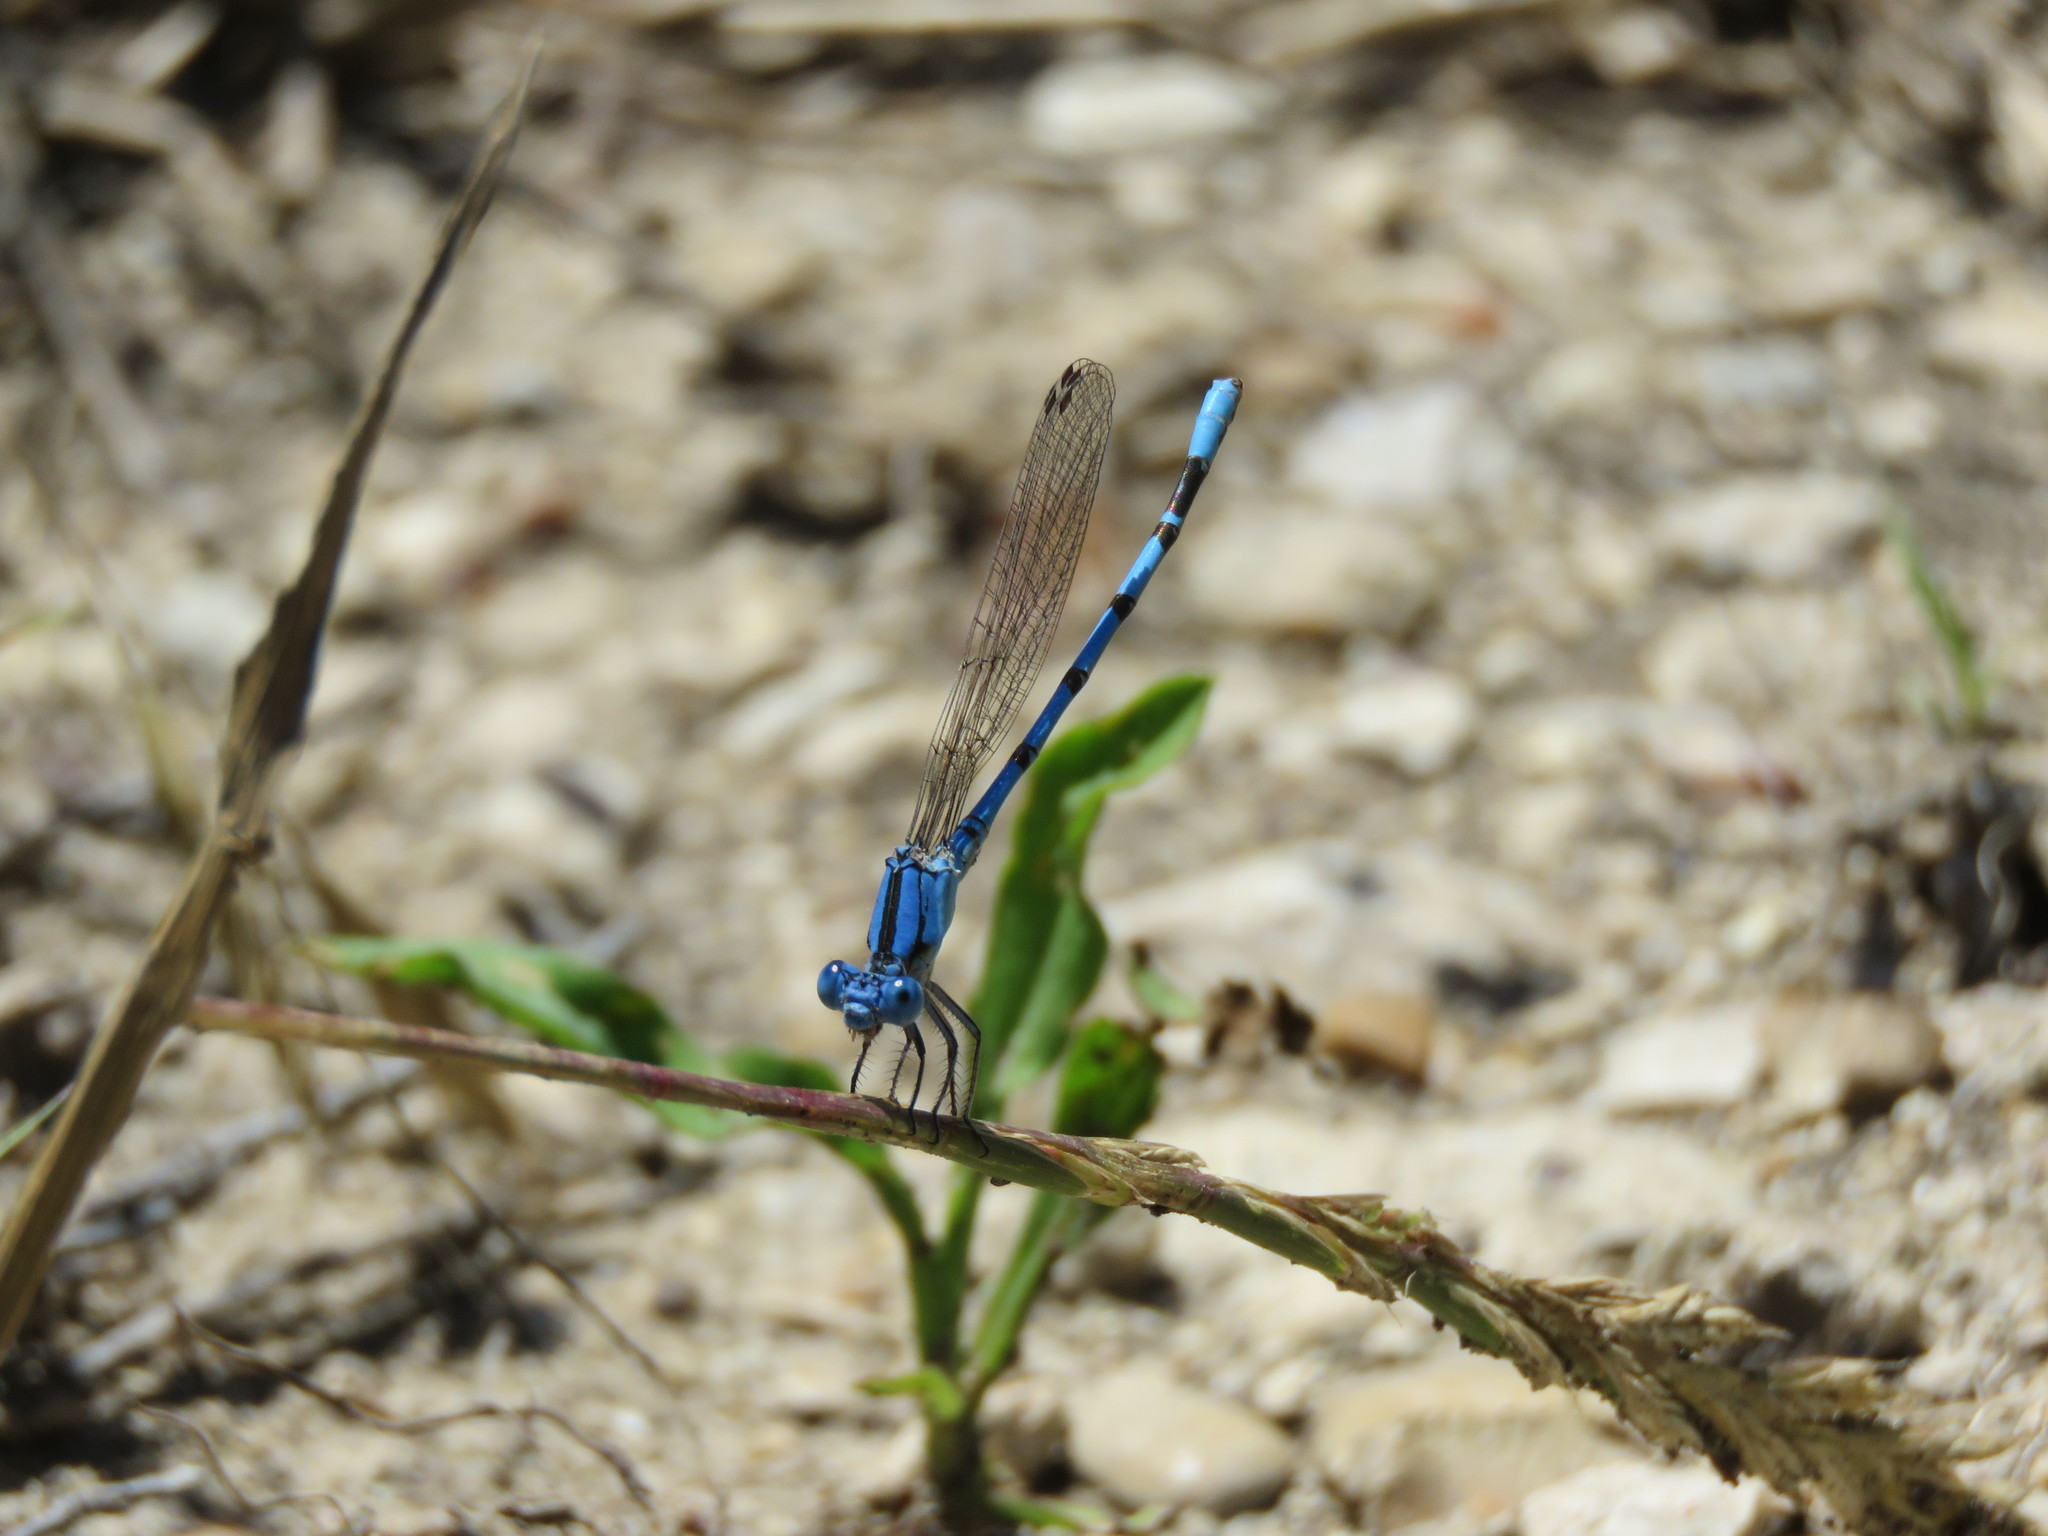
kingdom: Animalia
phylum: Arthropoda
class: Insecta
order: Odonata
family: Coenagrionidae
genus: Argia
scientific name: Argia nahuana
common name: Aztec dancer
